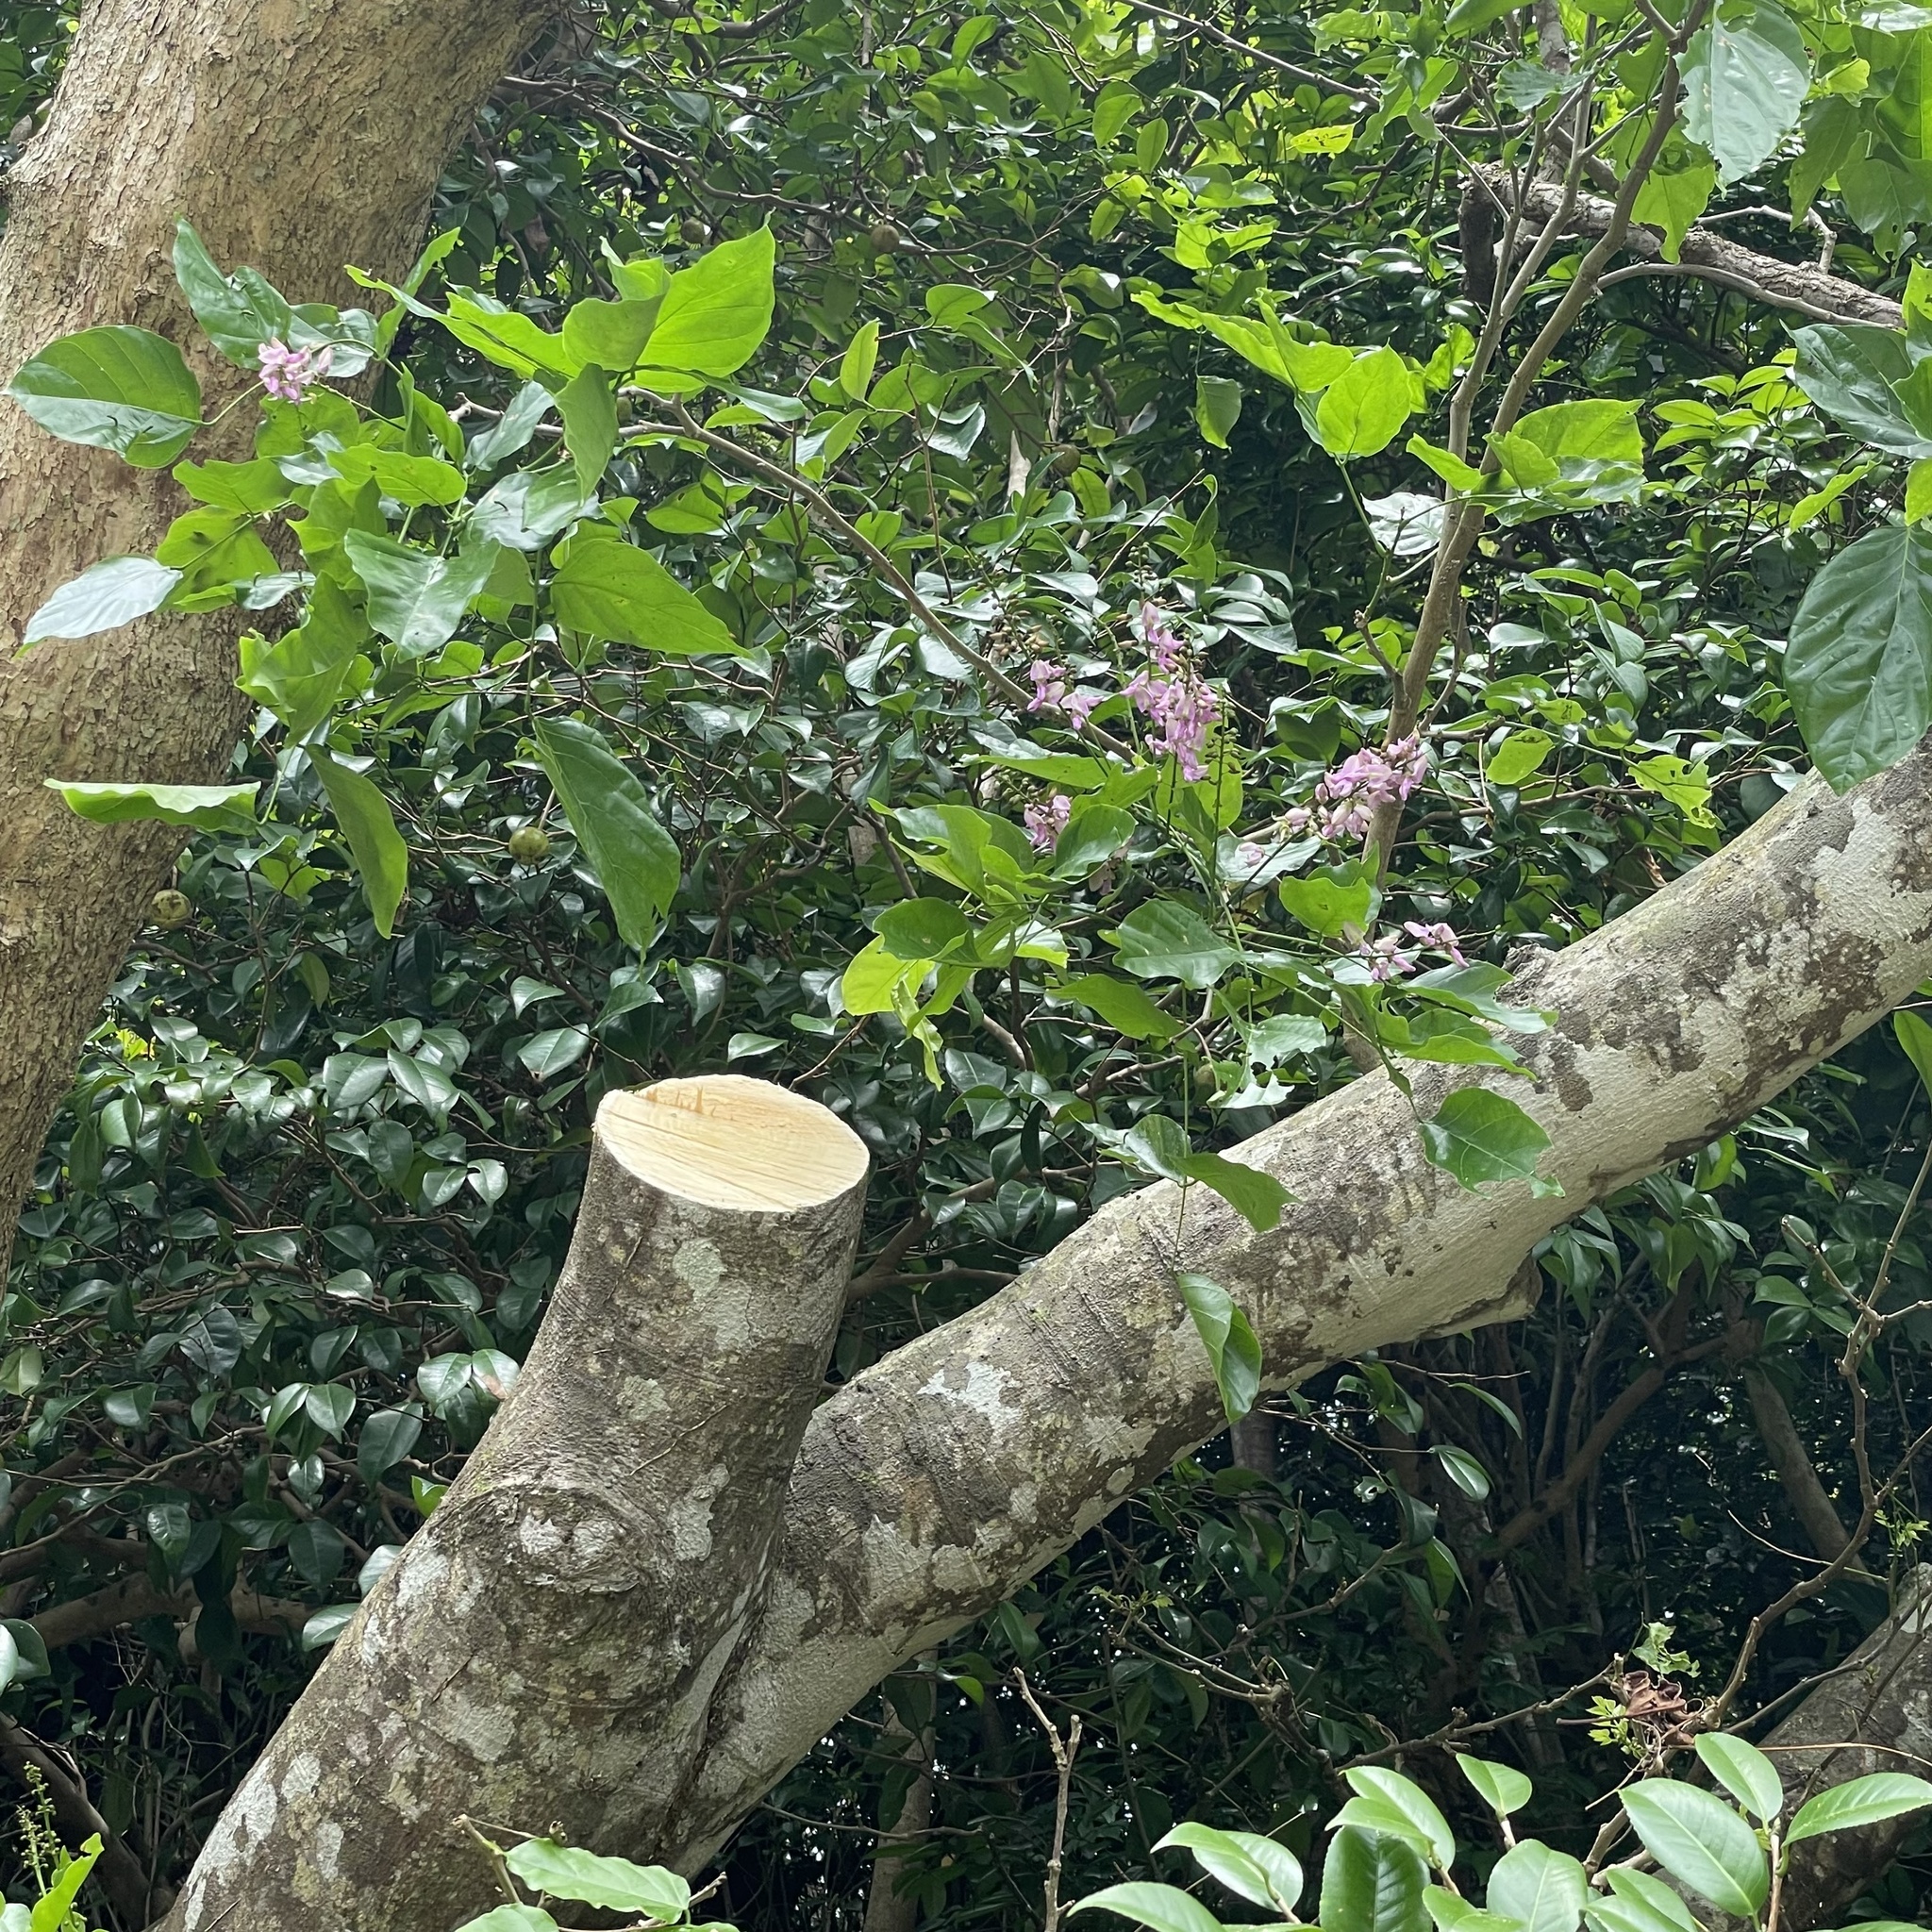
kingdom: Plantae
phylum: Tracheophyta
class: Magnoliopsida
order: Fabales
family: Fabaceae
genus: Pongamia
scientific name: Pongamia pinnata
